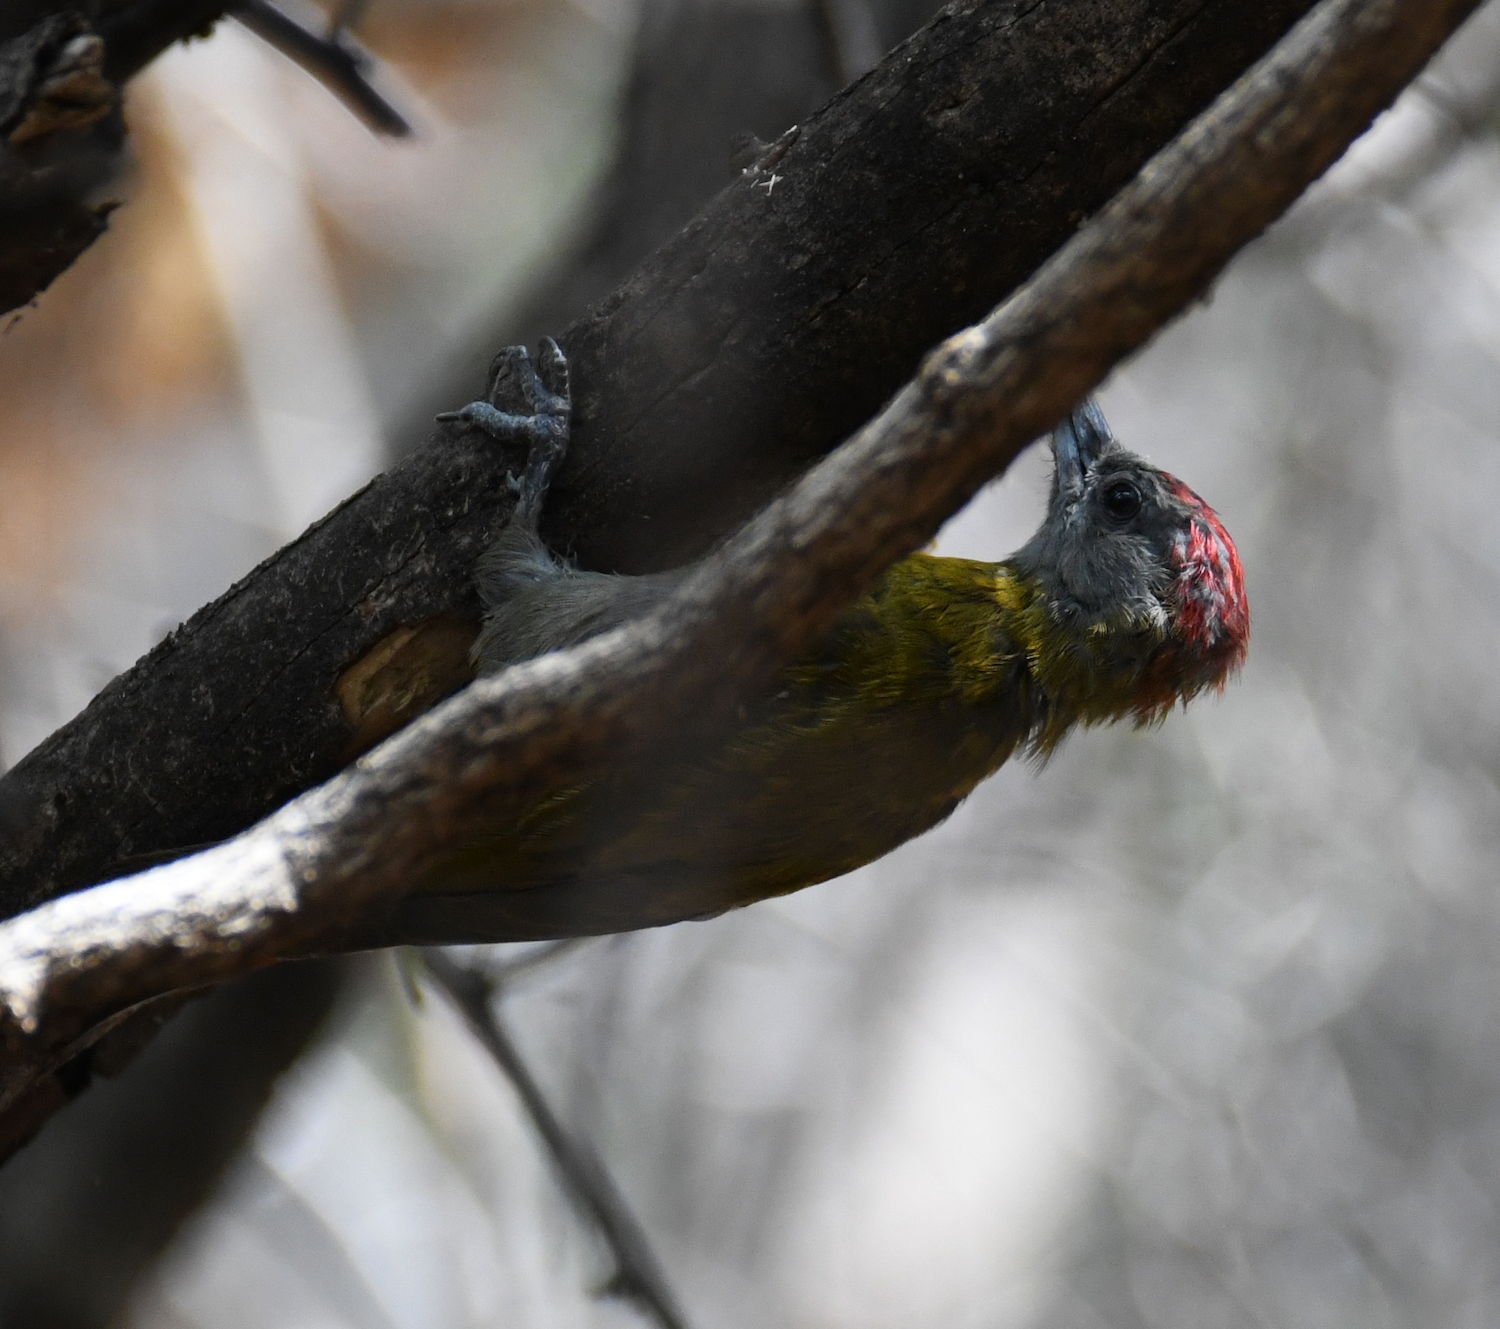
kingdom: Animalia
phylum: Chordata
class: Aves
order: Piciformes
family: Picidae
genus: Dendropicos
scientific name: Dendropicos griseocephalus
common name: Olive woodpecker
